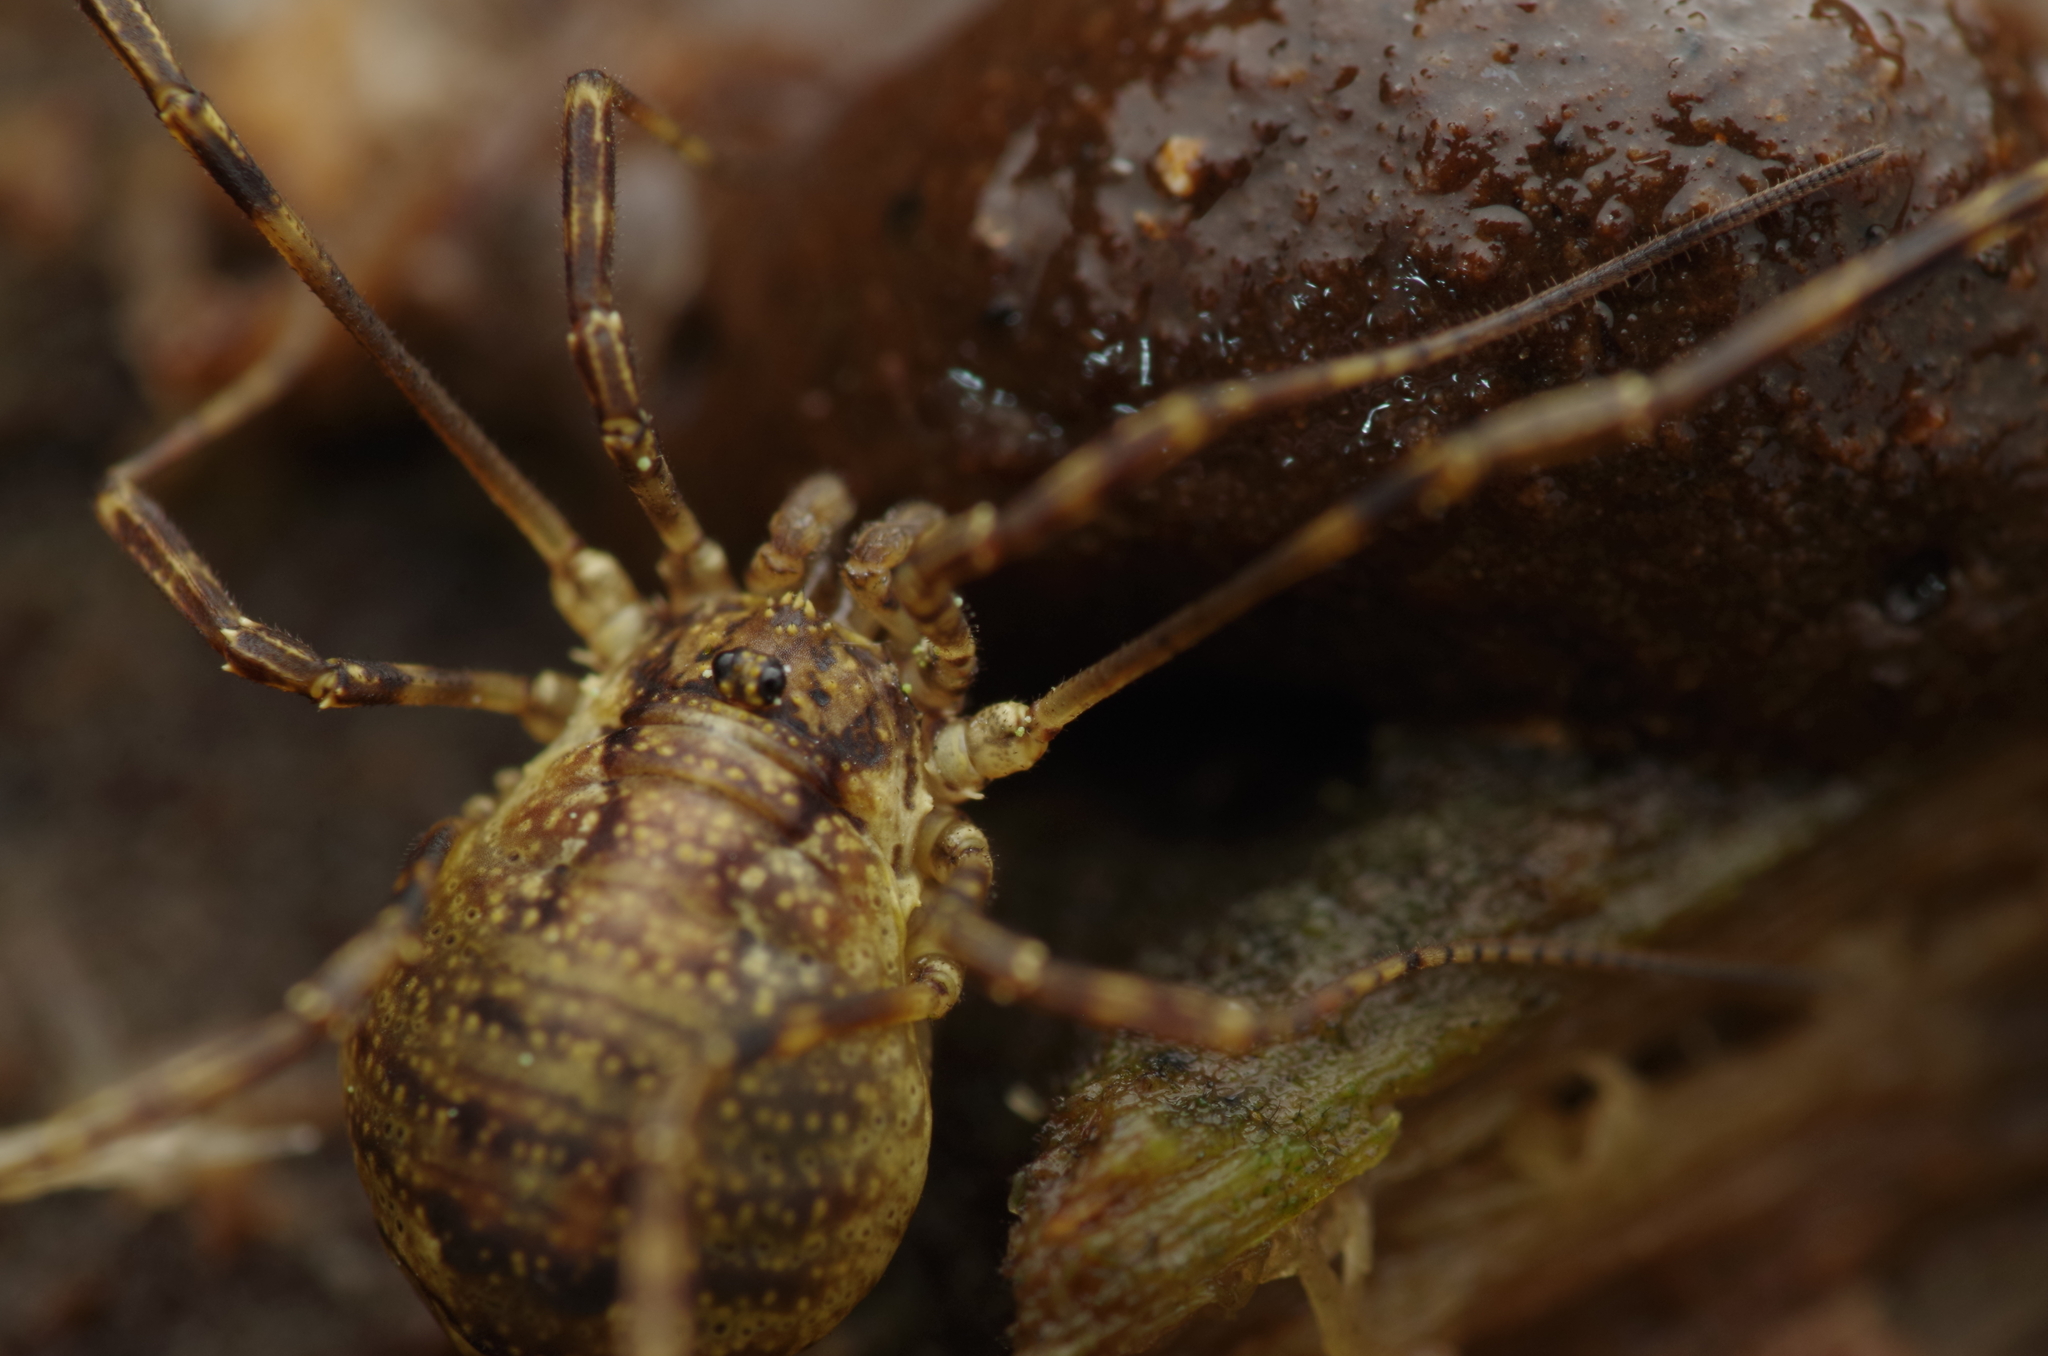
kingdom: Animalia
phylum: Arthropoda
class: Arachnida
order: Opiliones
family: Phalangiidae
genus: Oligolophus
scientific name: Oligolophus hansenii
